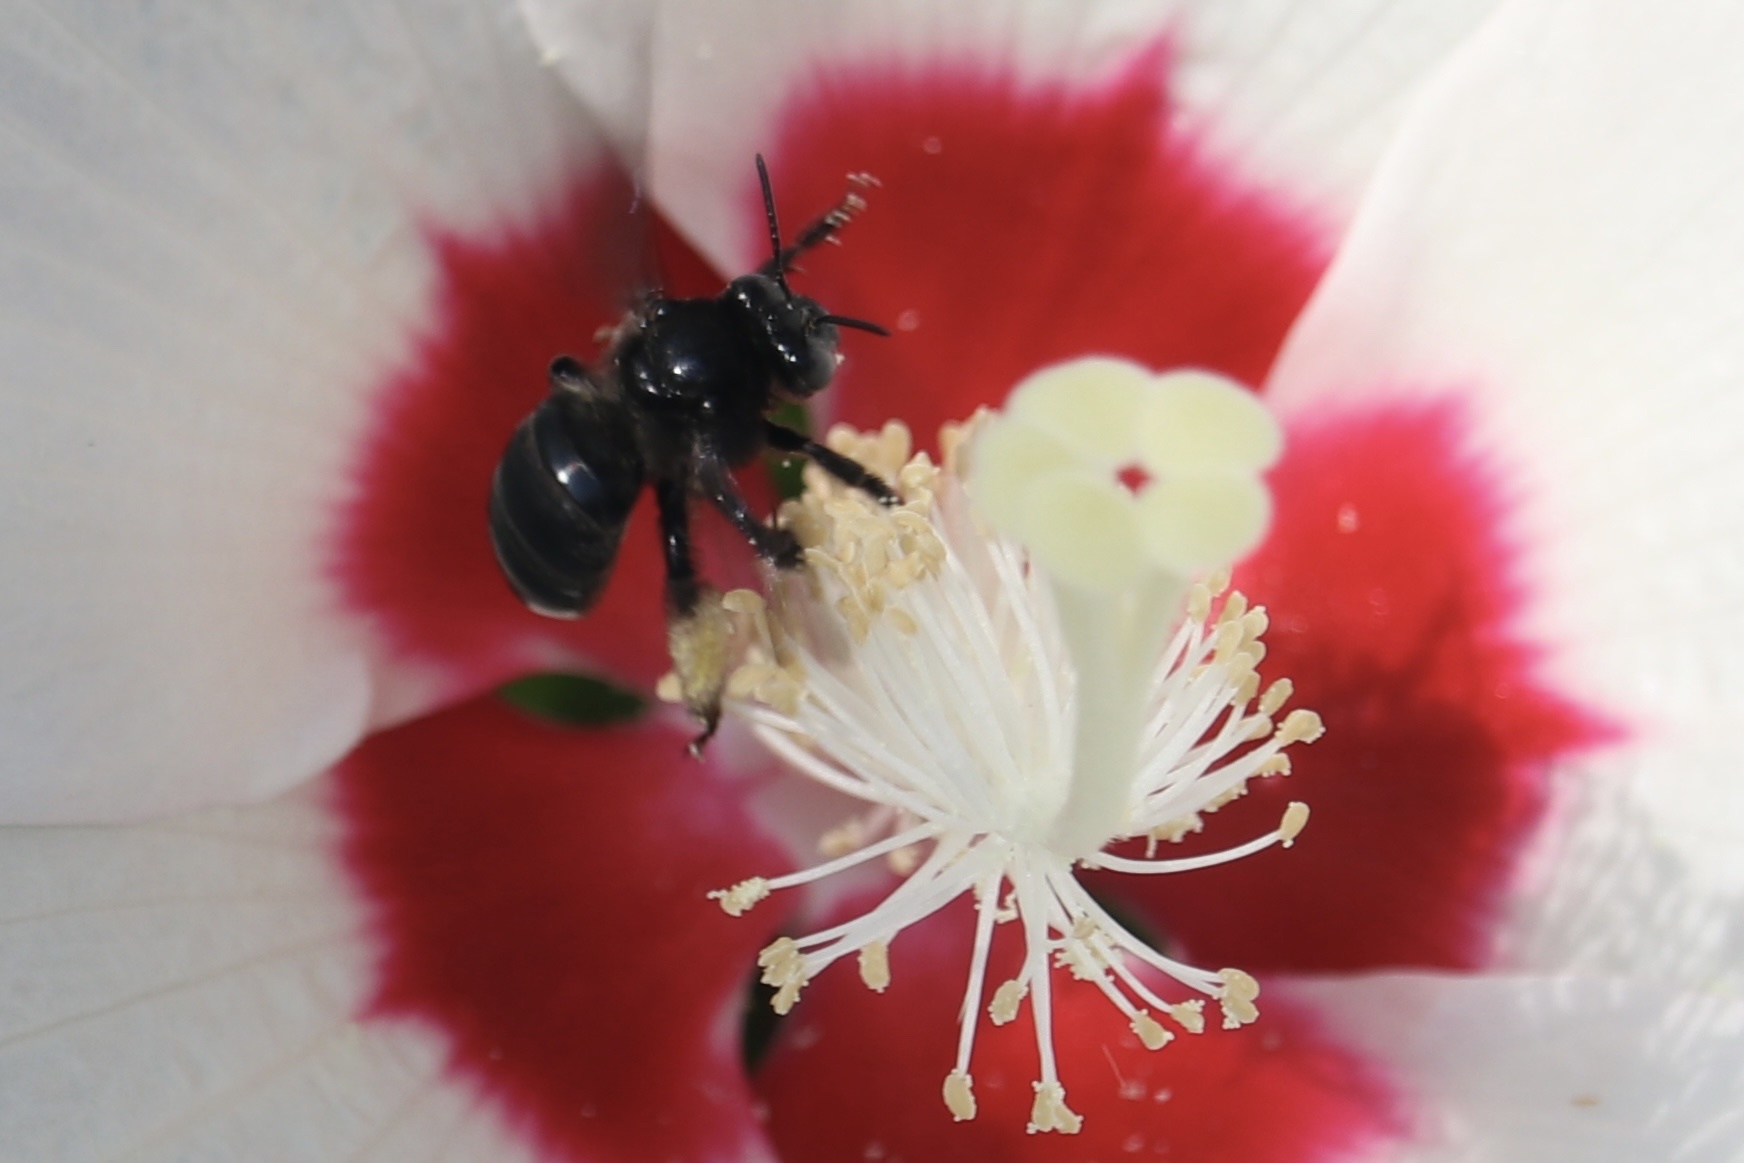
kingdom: Animalia
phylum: Arthropoda
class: Insecta
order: Hymenoptera
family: Apidae
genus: Melissodes
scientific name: Melissodes bimaculatus
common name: Two-spotted long-horned bee
